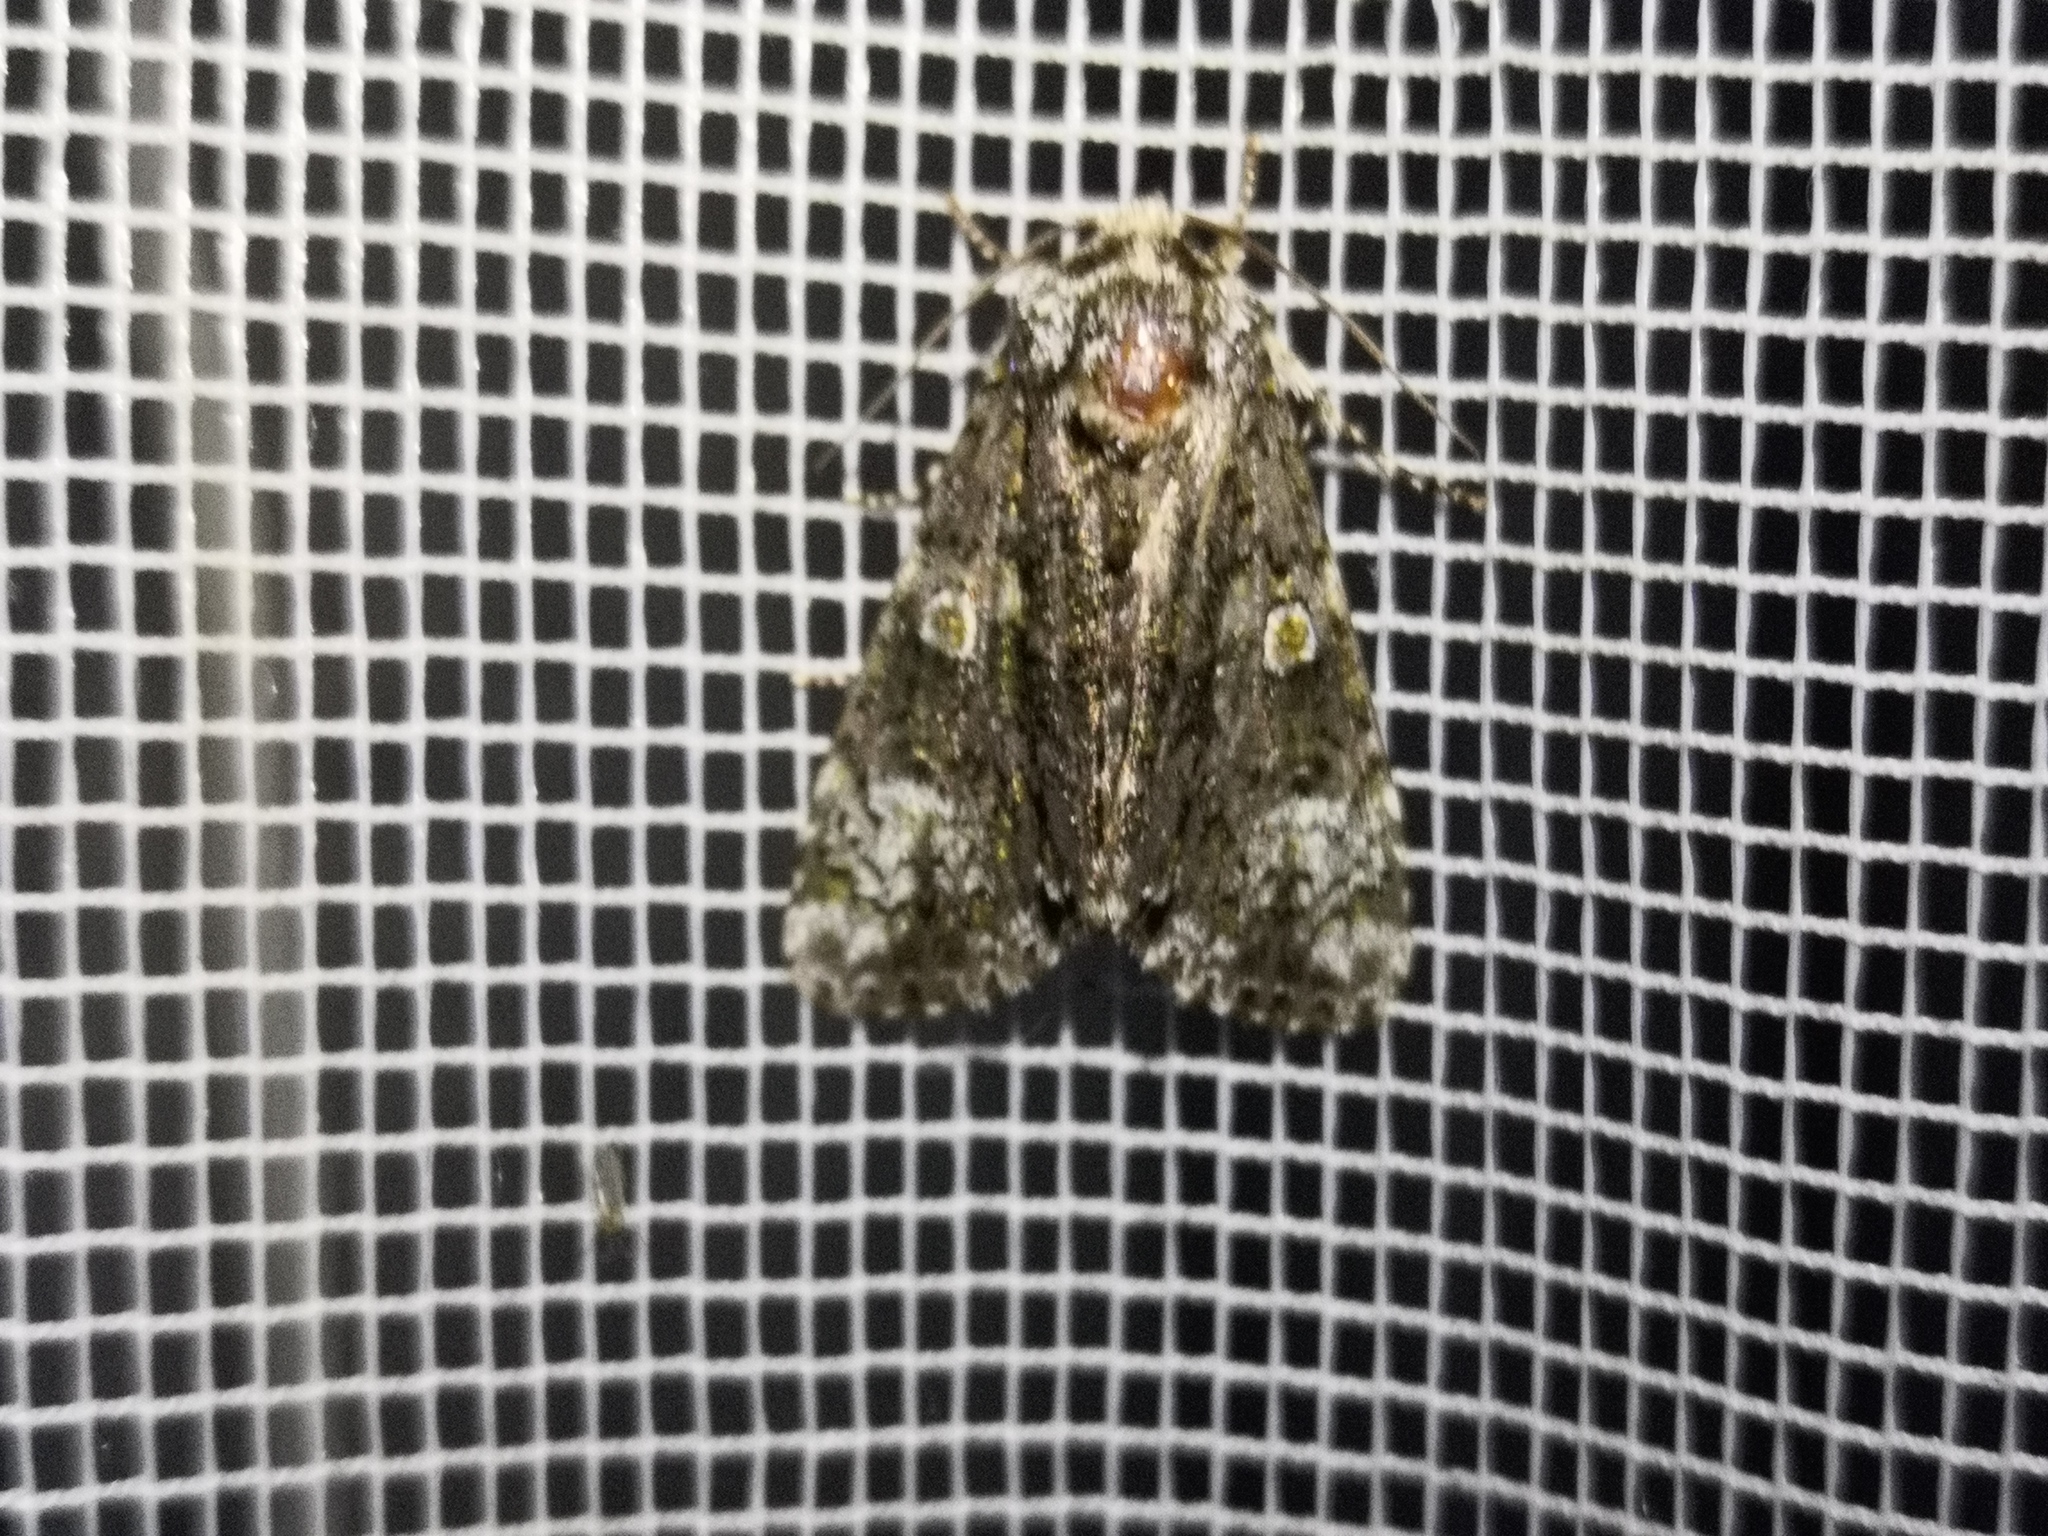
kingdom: Animalia
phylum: Arthropoda
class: Insecta
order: Lepidoptera
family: Noctuidae
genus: Craniophora
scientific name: Craniophora ligustri
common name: Coronet
